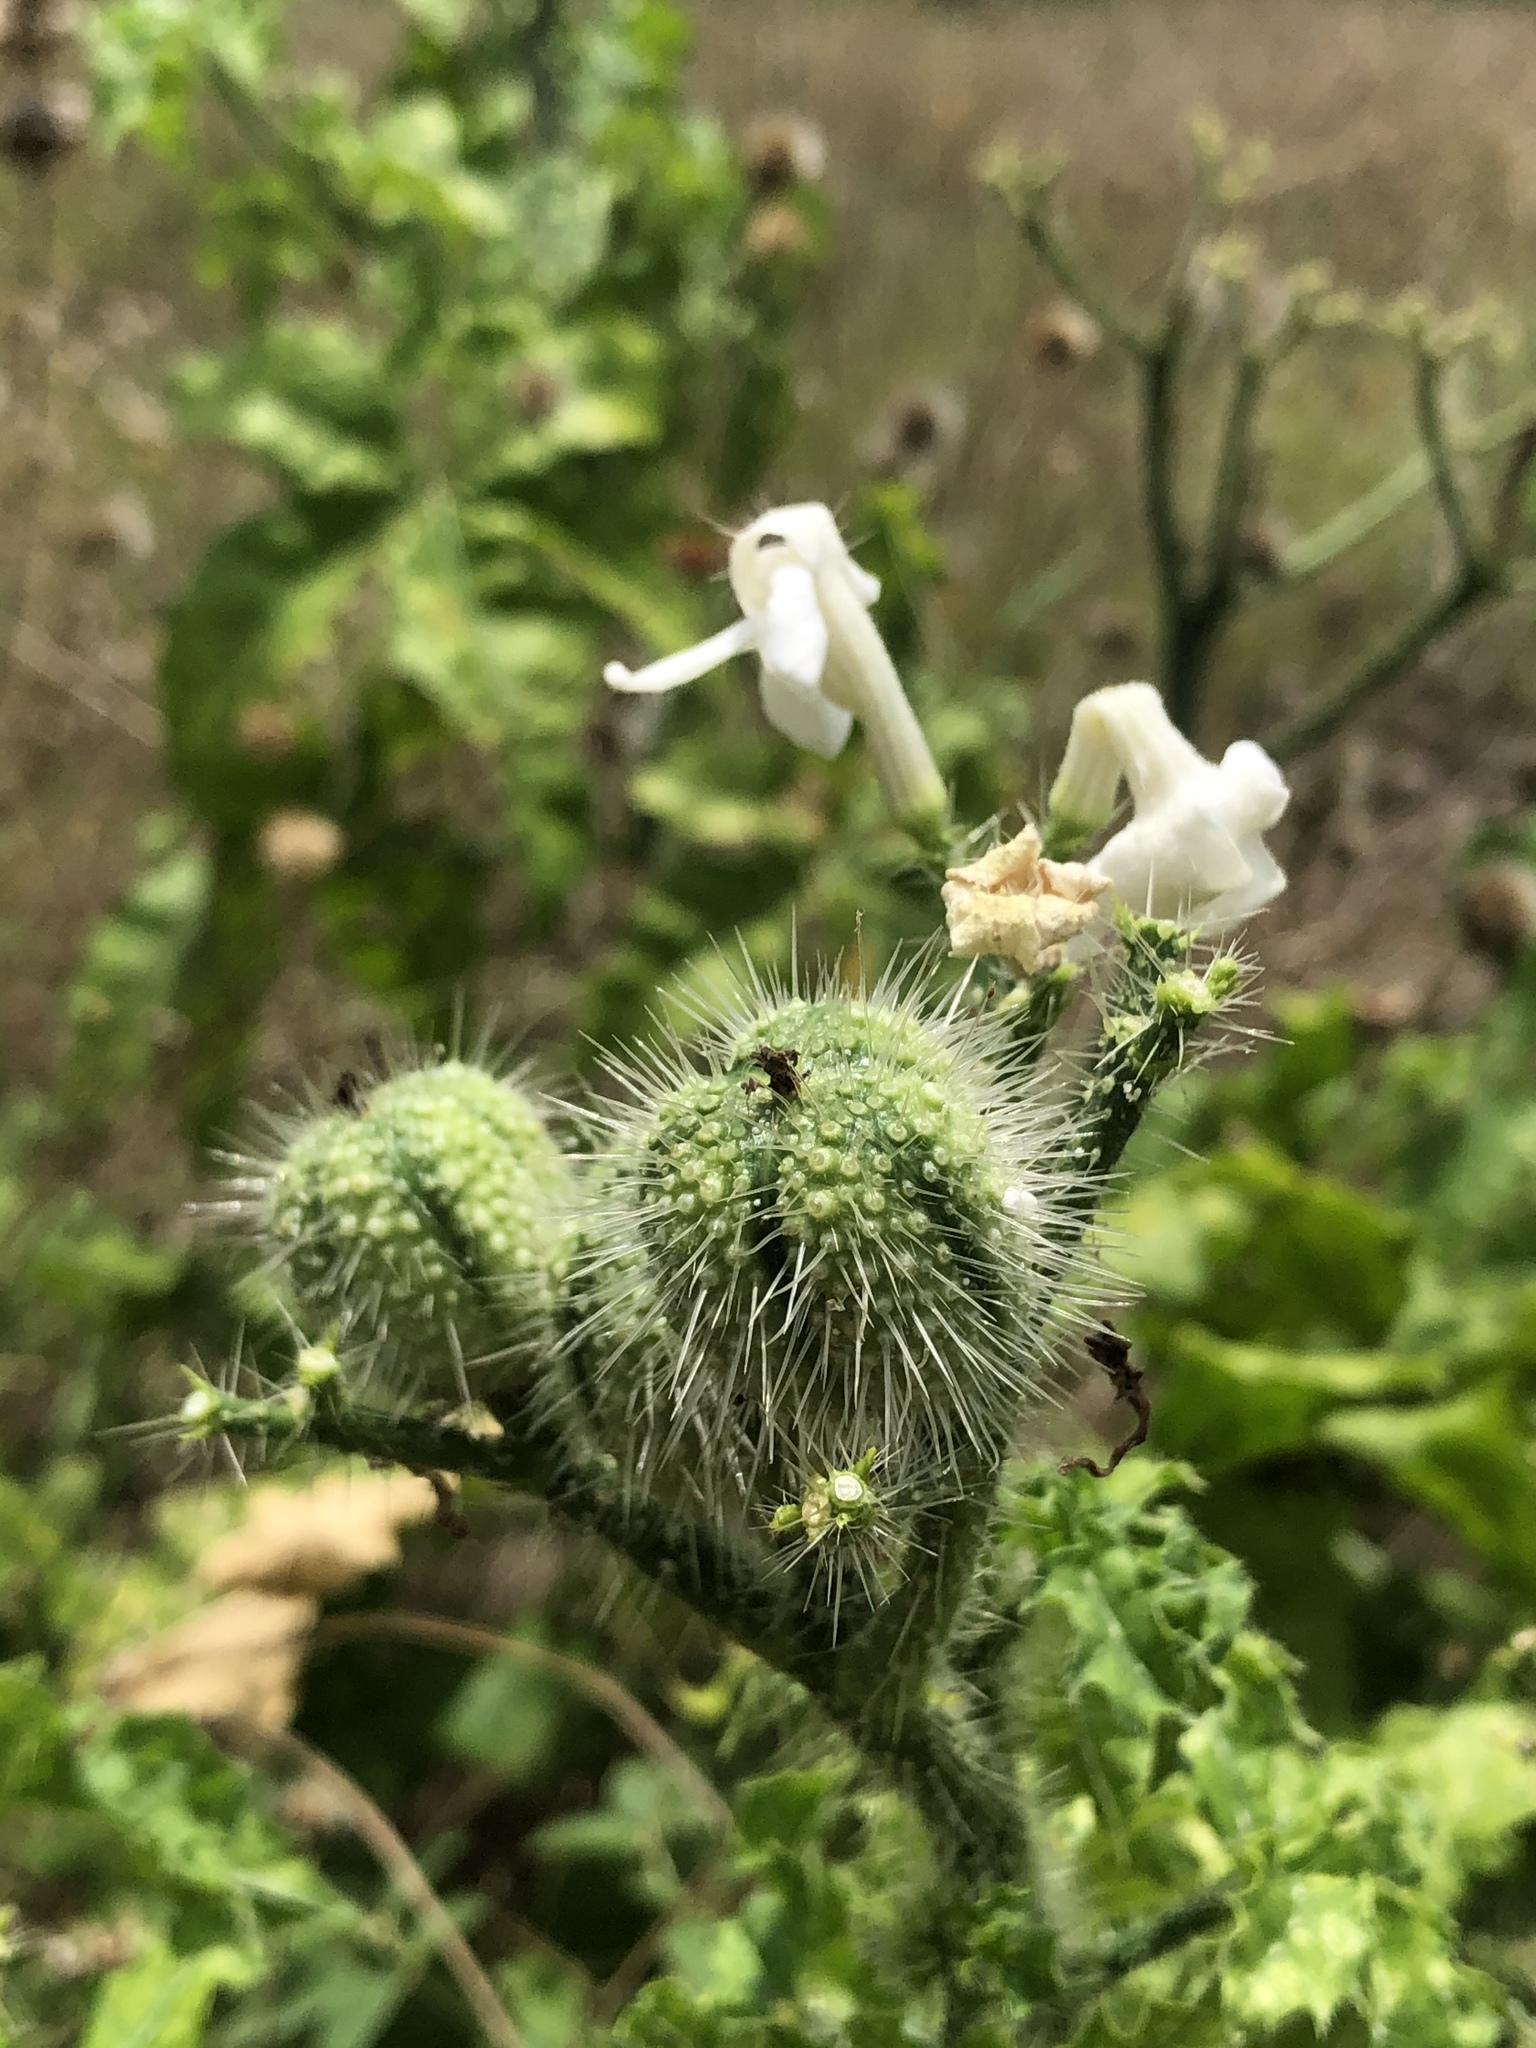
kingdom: Plantae
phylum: Tracheophyta
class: Magnoliopsida
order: Malpighiales
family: Euphorbiaceae
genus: Cnidoscolus
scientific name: Cnidoscolus texanus
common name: Texas bull-nettle
